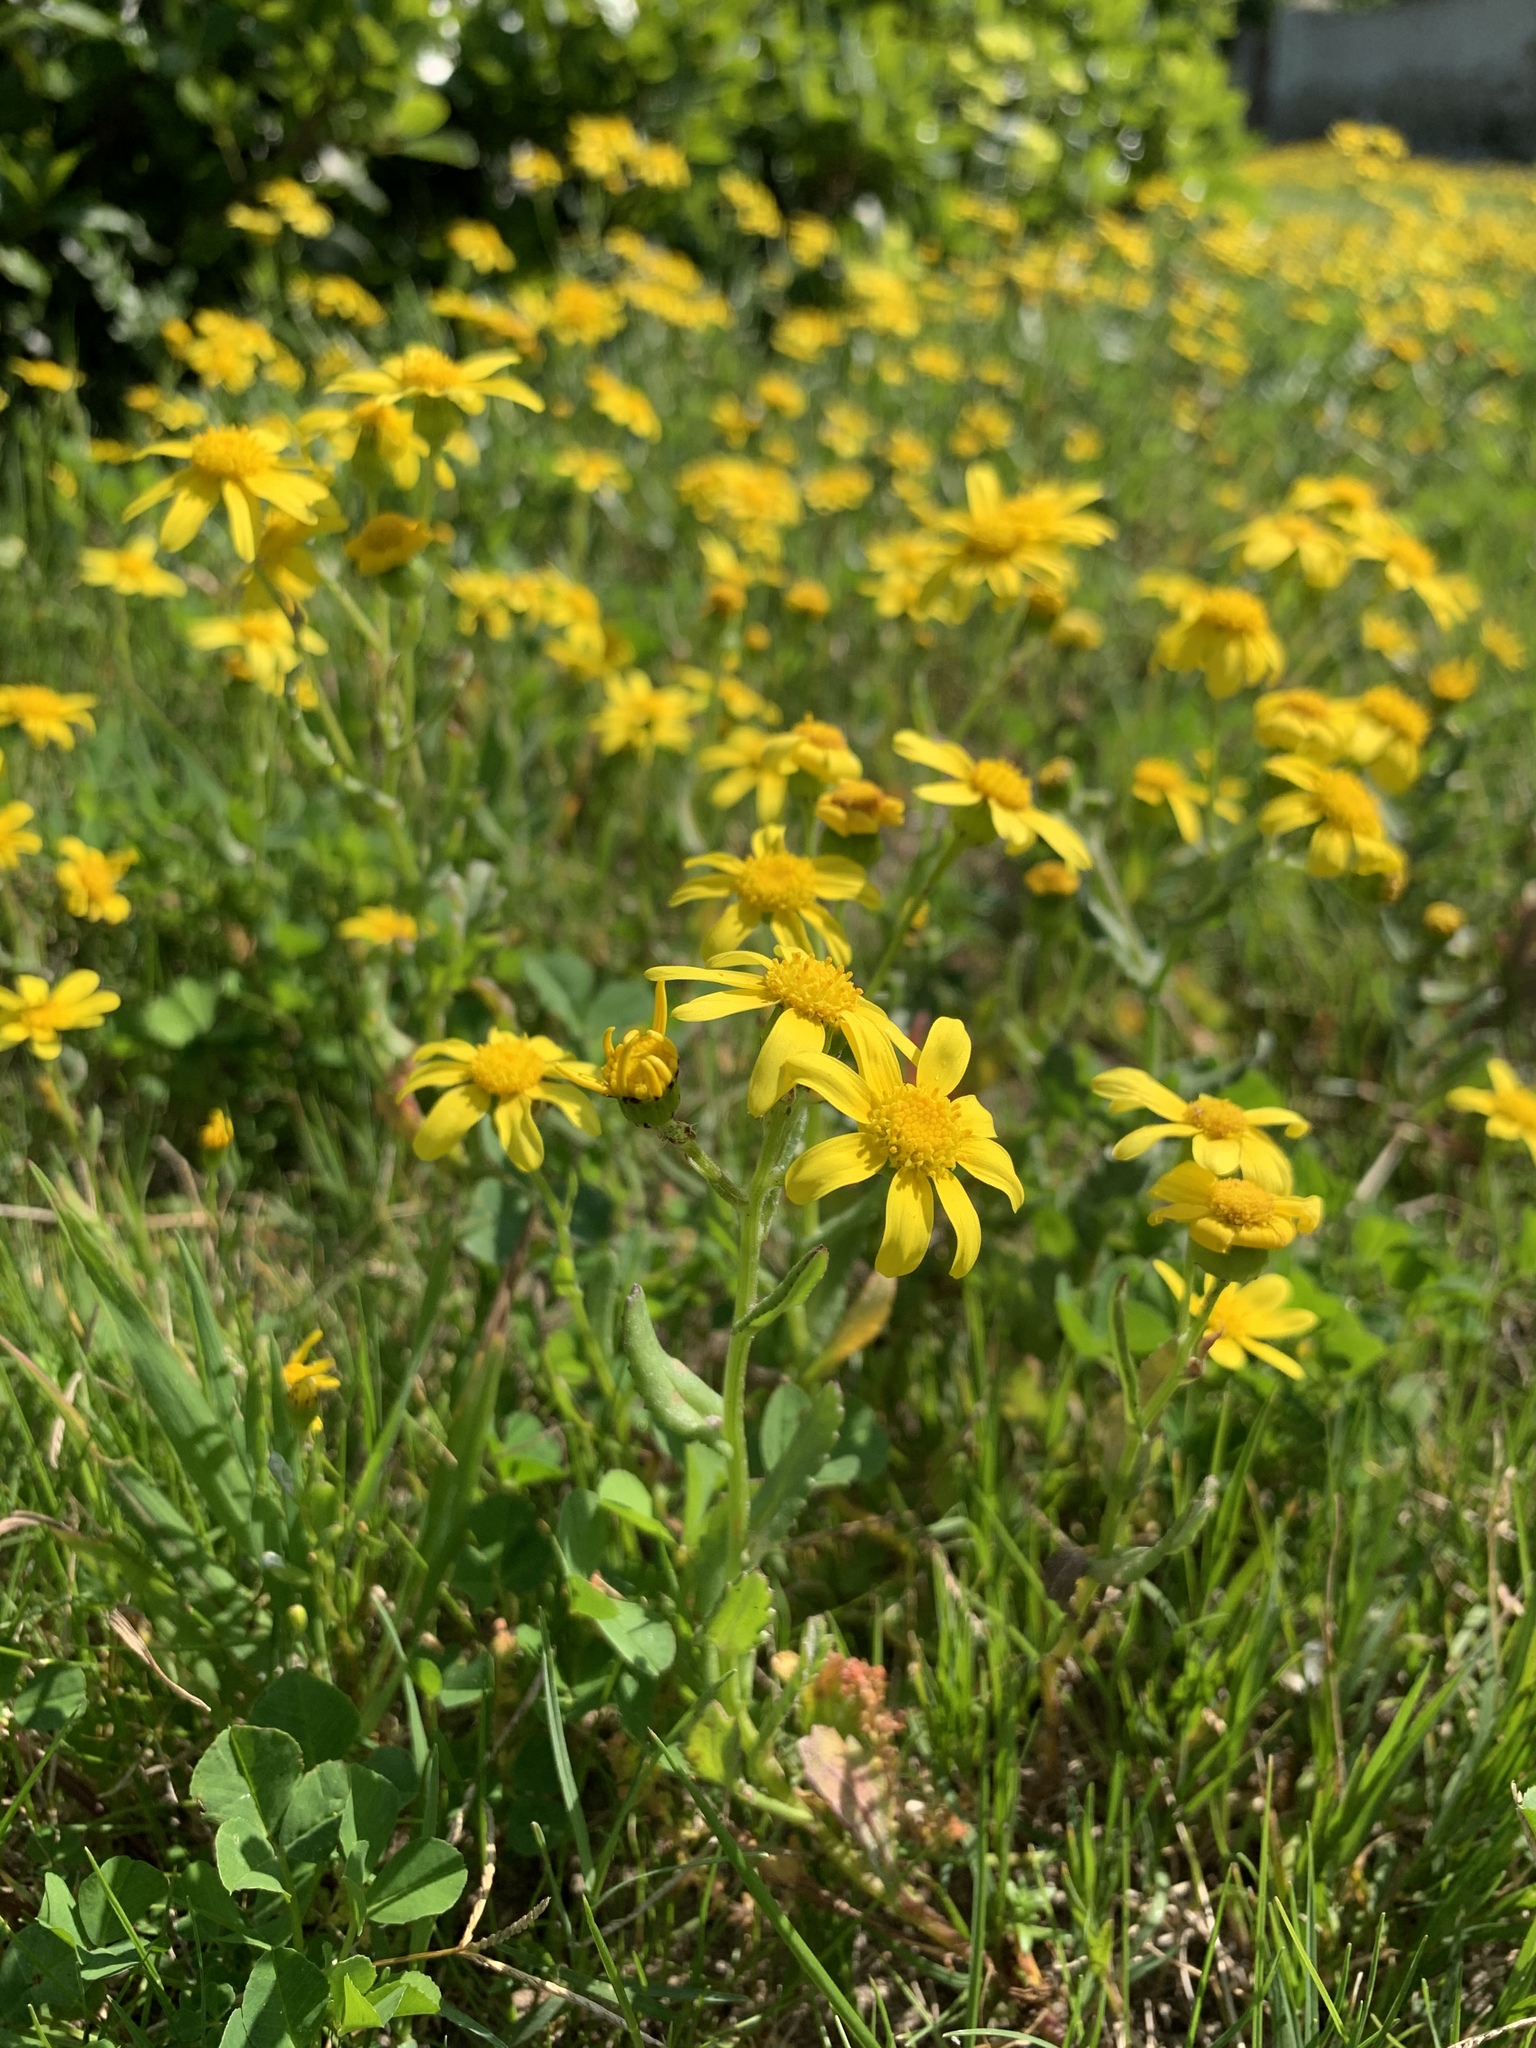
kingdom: Plantae
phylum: Tracheophyta
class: Magnoliopsida
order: Asterales
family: Asteraceae
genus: Senecio
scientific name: Senecio littoreus
